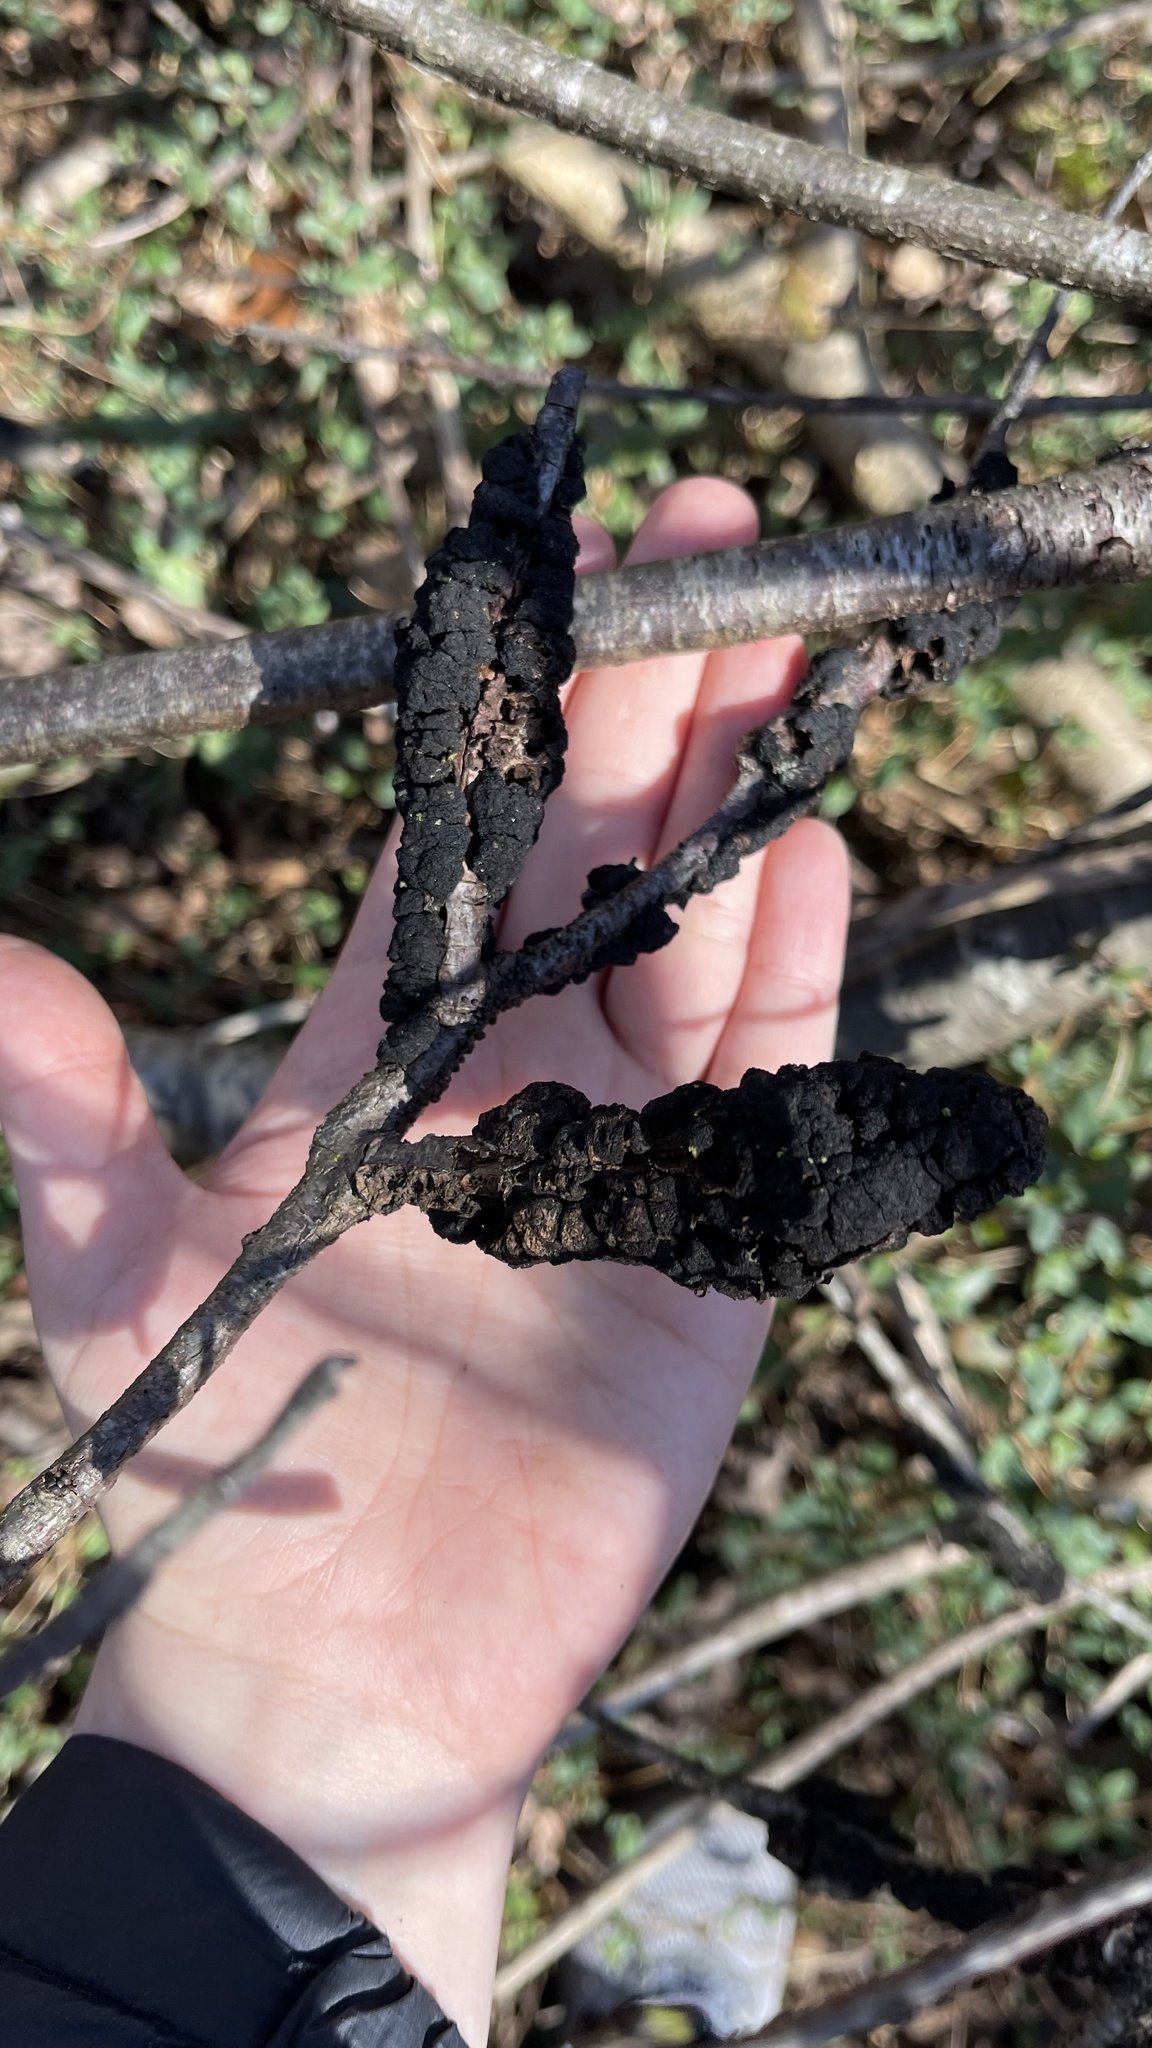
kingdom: Fungi
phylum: Ascomycota
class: Dothideomycetes
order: Venturiales
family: Venturiaceae
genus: Apiosporina
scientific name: Apiosporina morbosa
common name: Black knot
